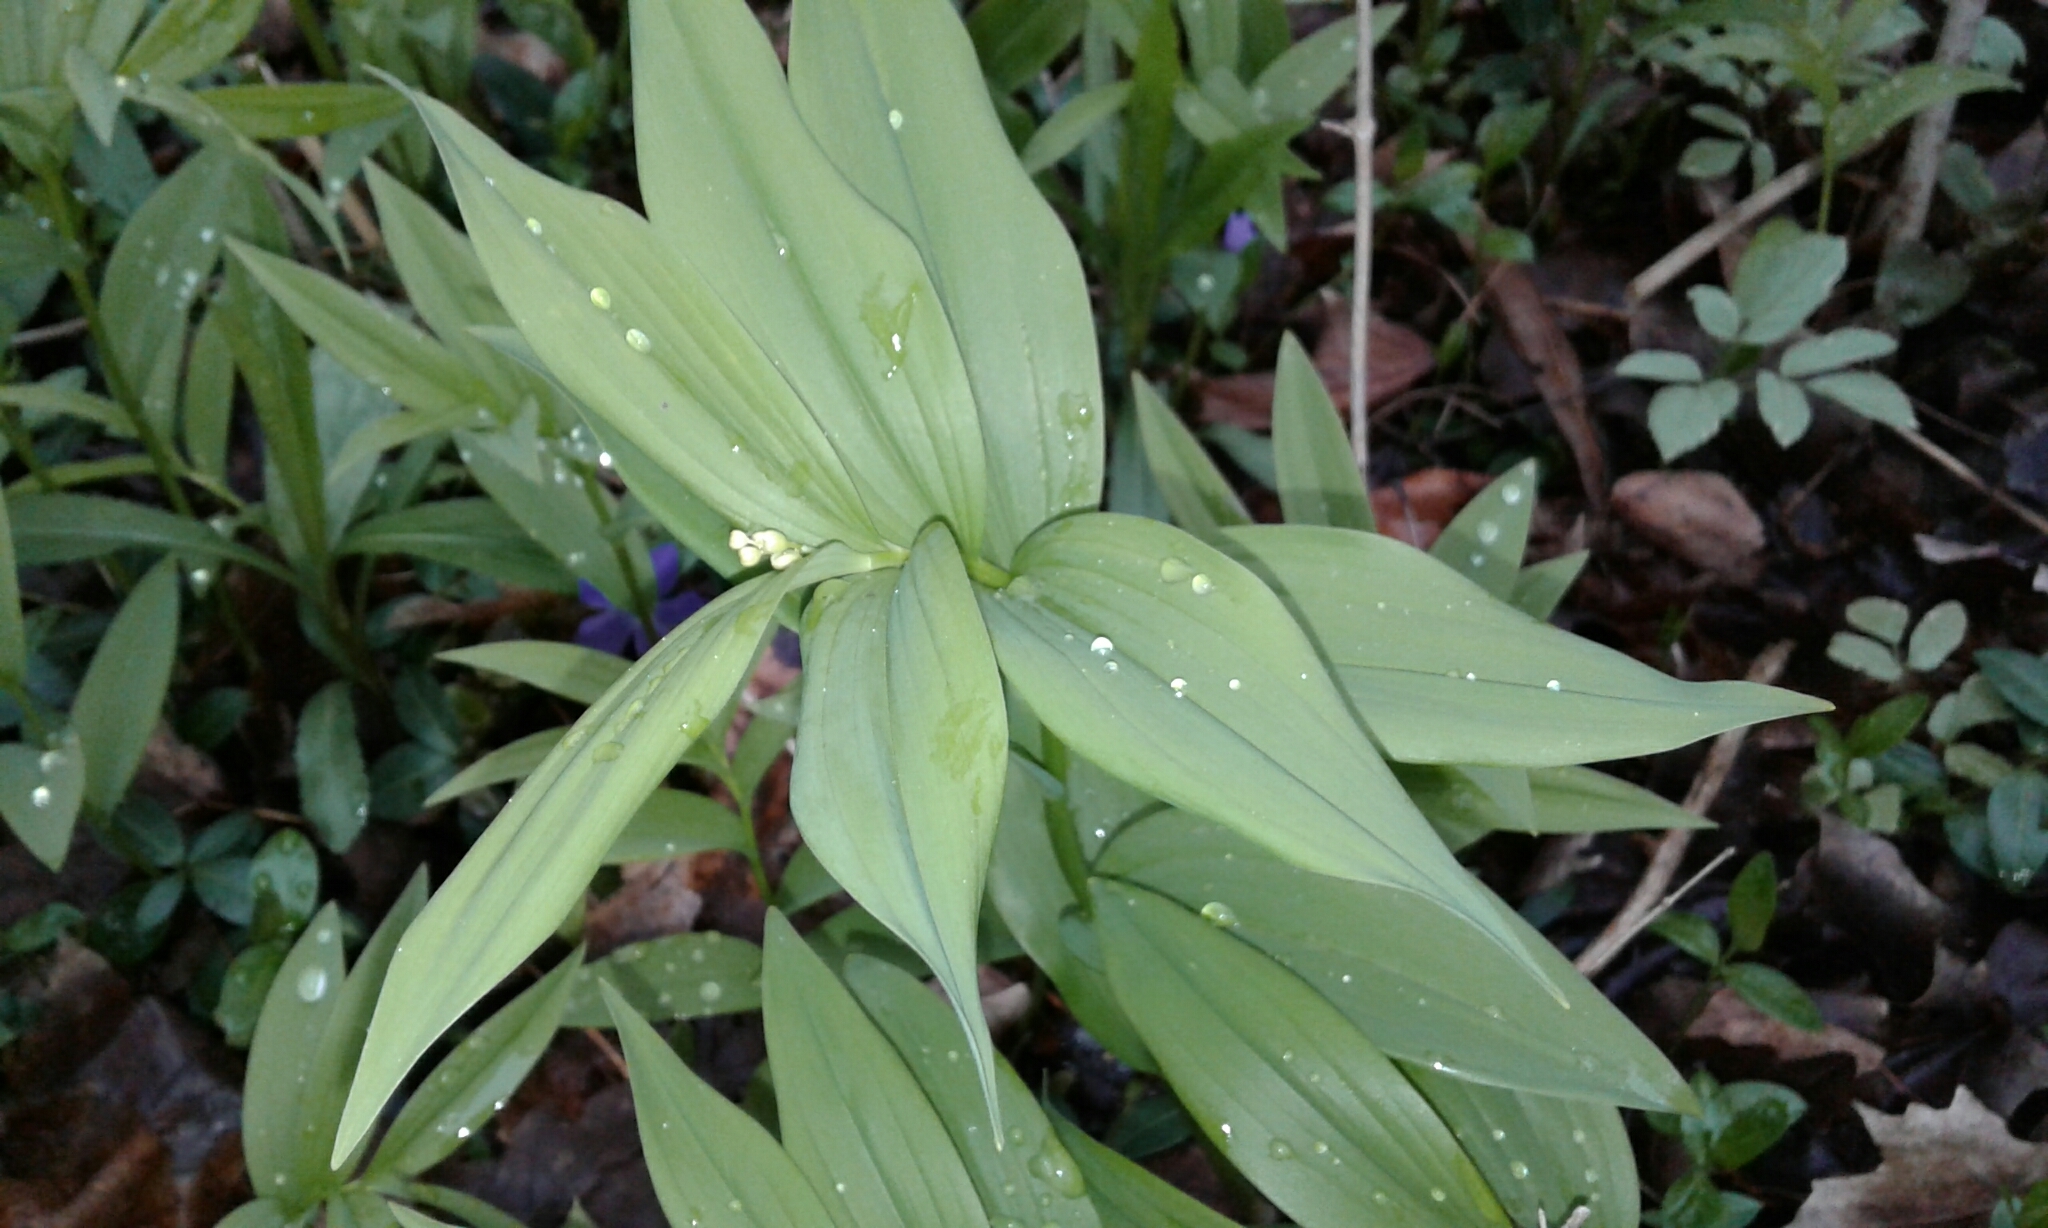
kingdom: Plantae
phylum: Tracheophyta
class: Liliopsida
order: Asparagales
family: Asparagaceae
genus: Maianthemum
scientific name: Maianthemum stellatum
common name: Little false solomon's seal
